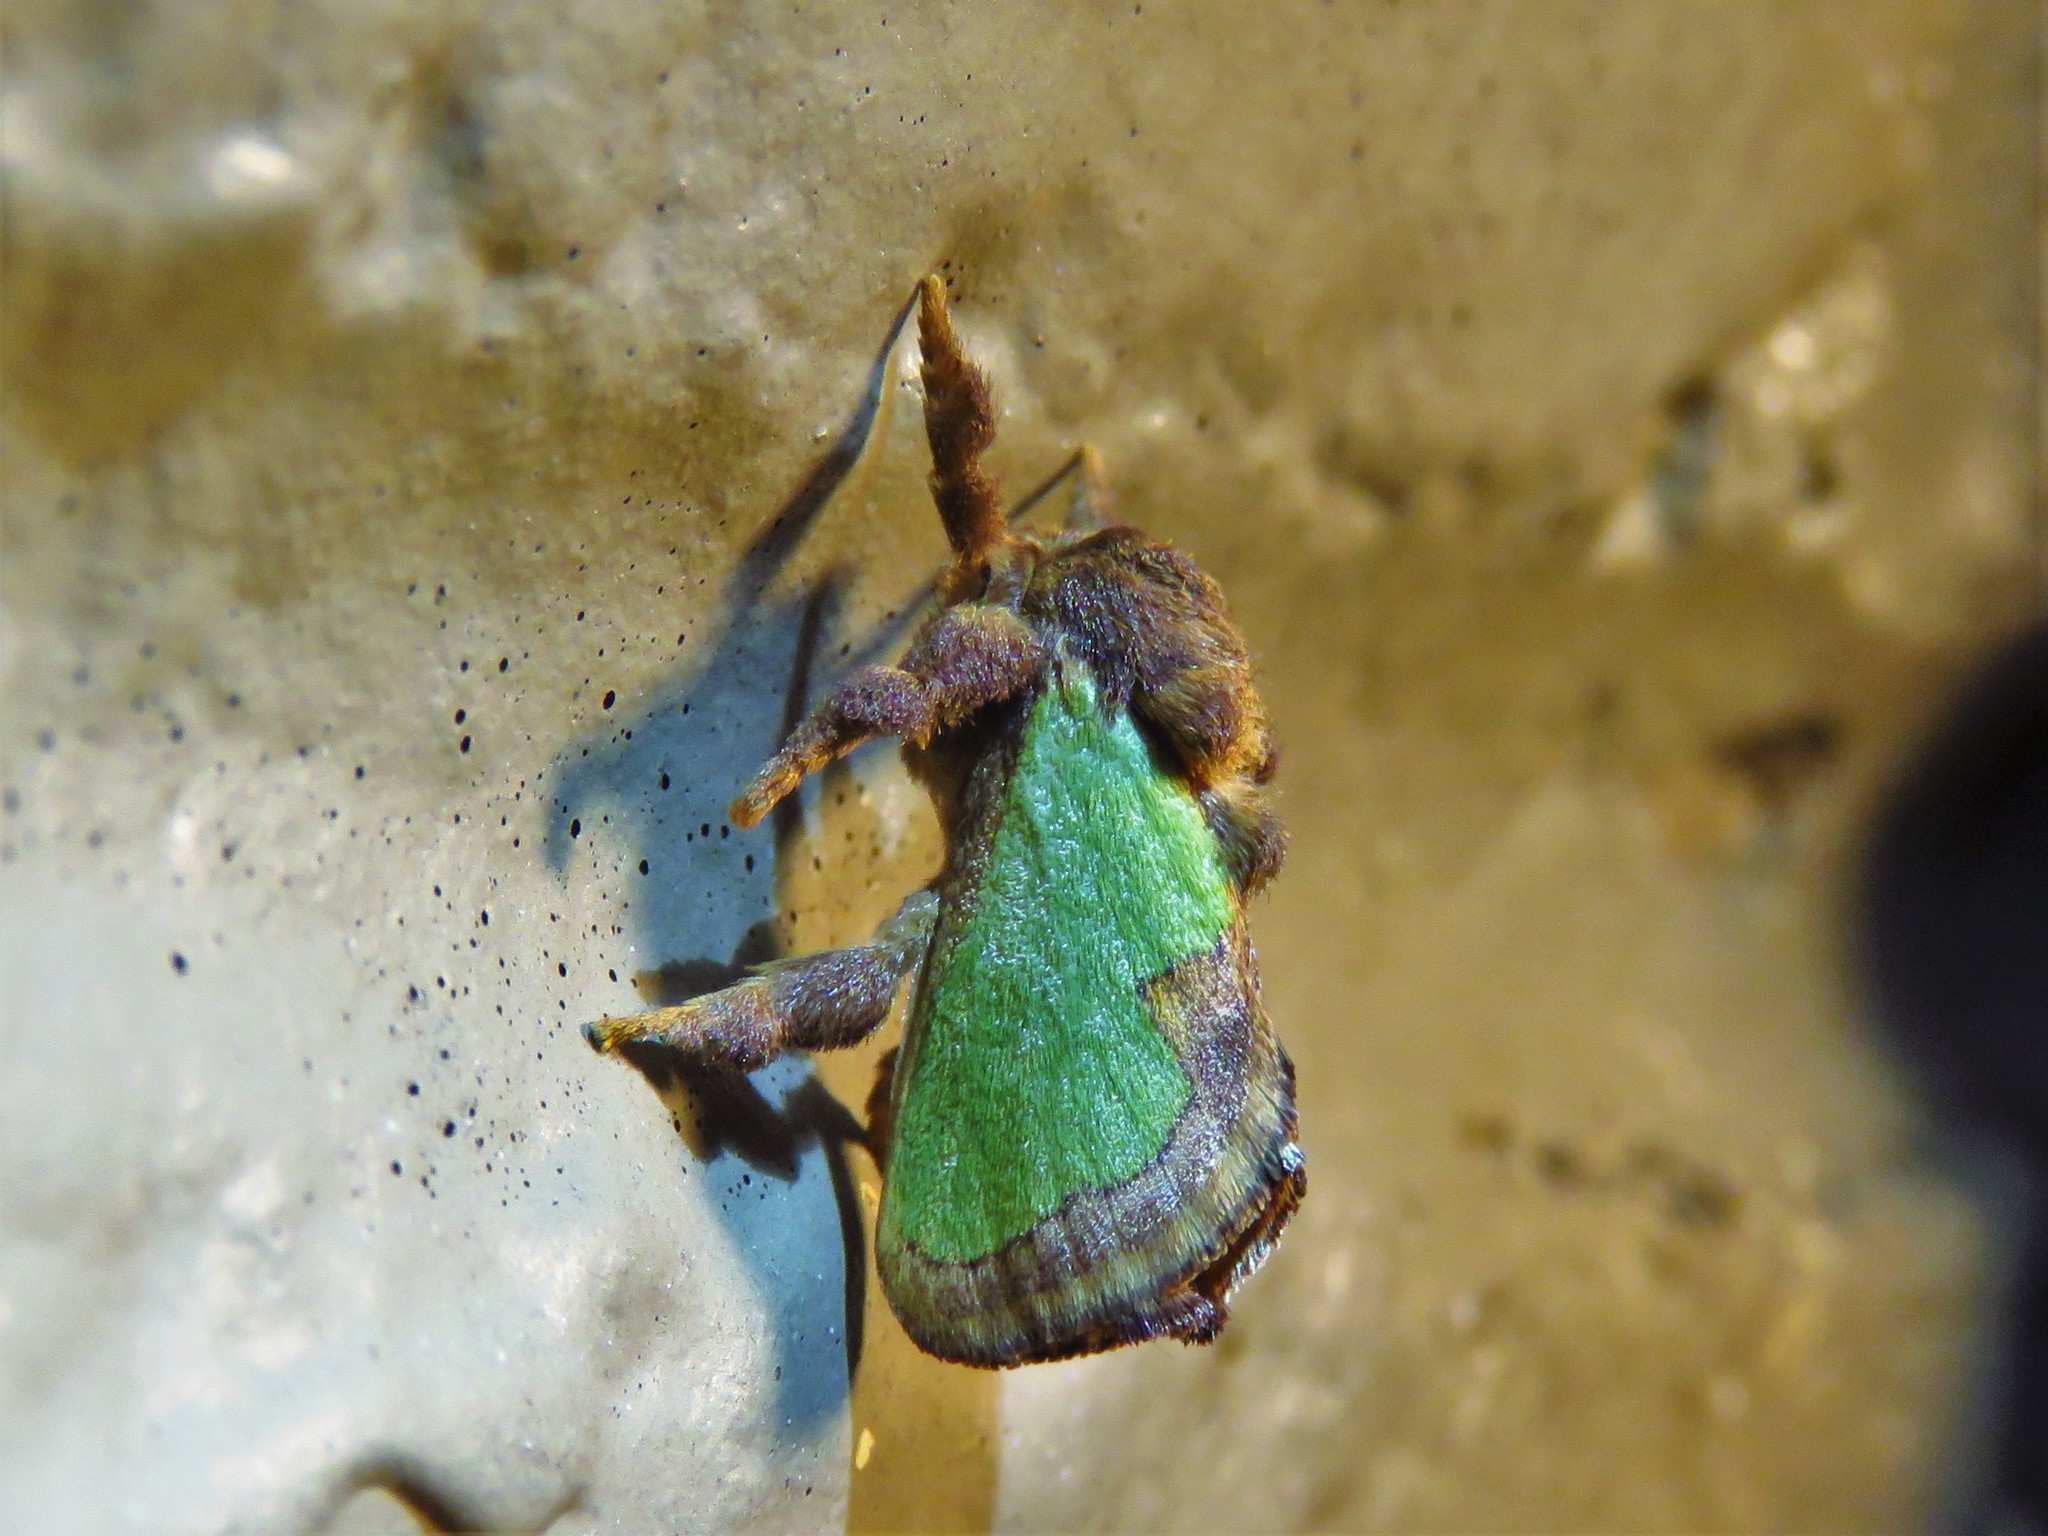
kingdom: Animalia
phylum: Arthropoda
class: Insecta
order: Lepidoptera
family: Limacodidae
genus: Euclea
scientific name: Euclea incisa
